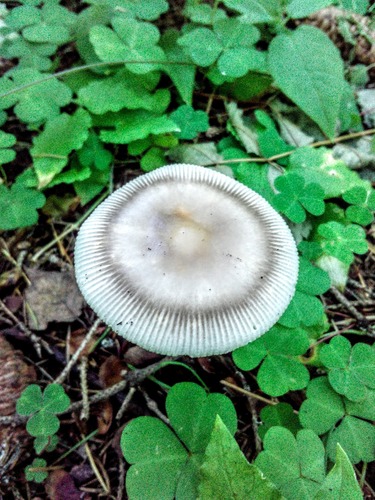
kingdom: Fungi
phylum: Basidiomycota
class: Agaricomycetes
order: Agaricales
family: Amanitaceae
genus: Amanita
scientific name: Amanita
